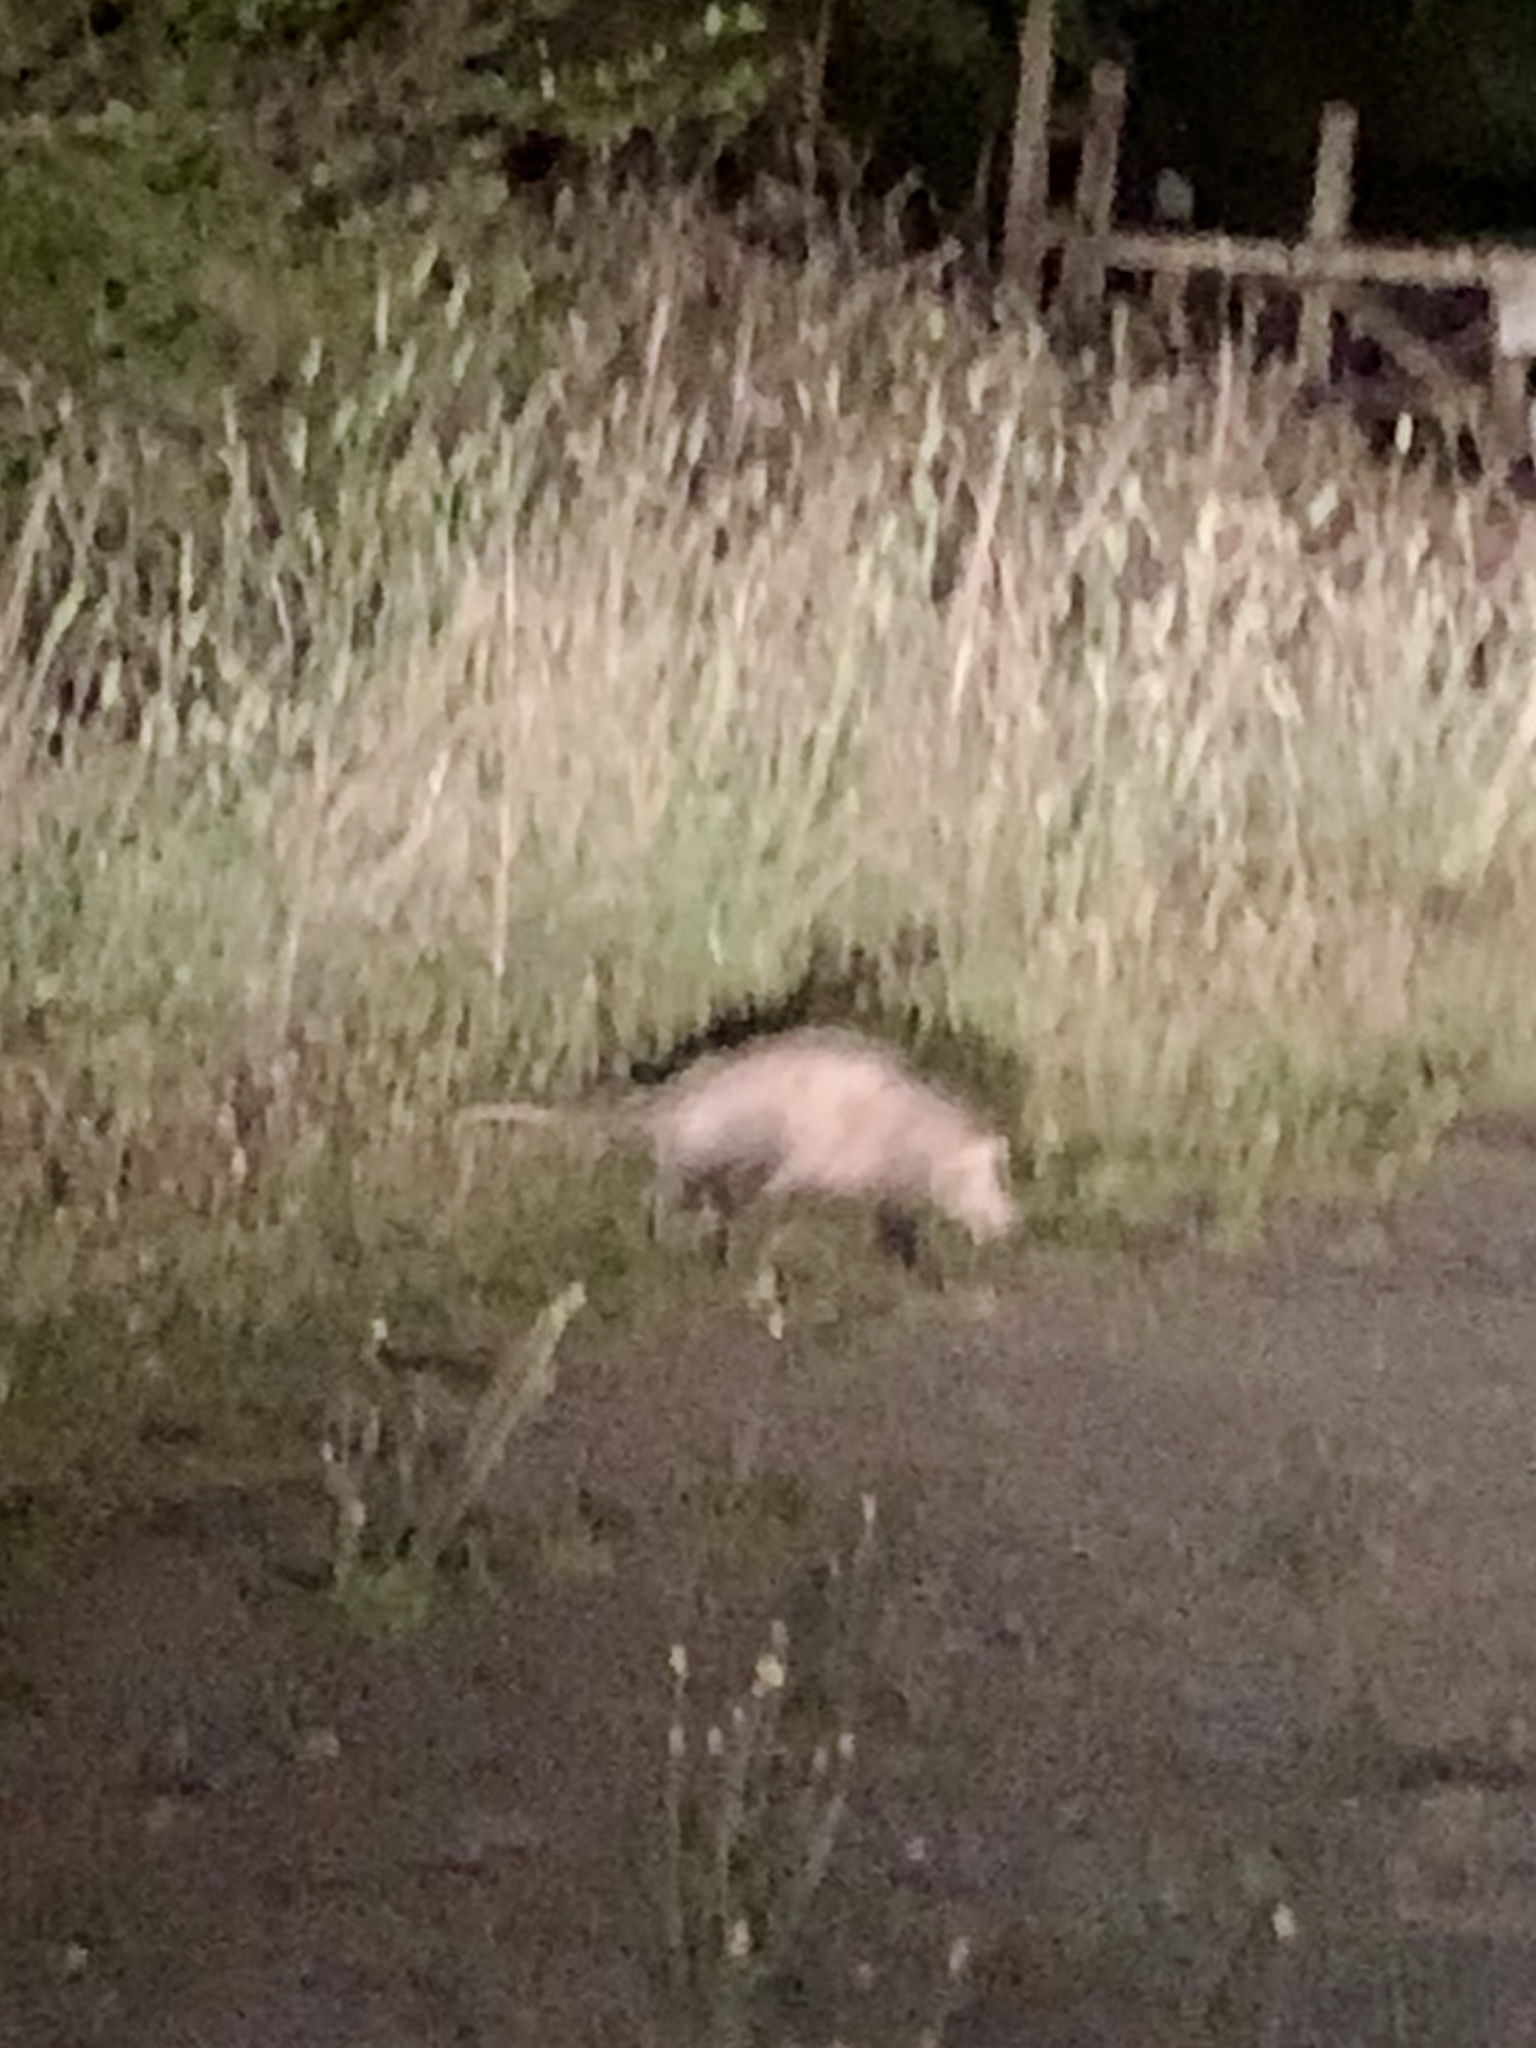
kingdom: Animalia
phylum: Chordata
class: Mammalia
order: Didelphimorphia
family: Didelphidae
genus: Didelphis
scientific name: Didelphis virginiana
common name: Virginia opossum
